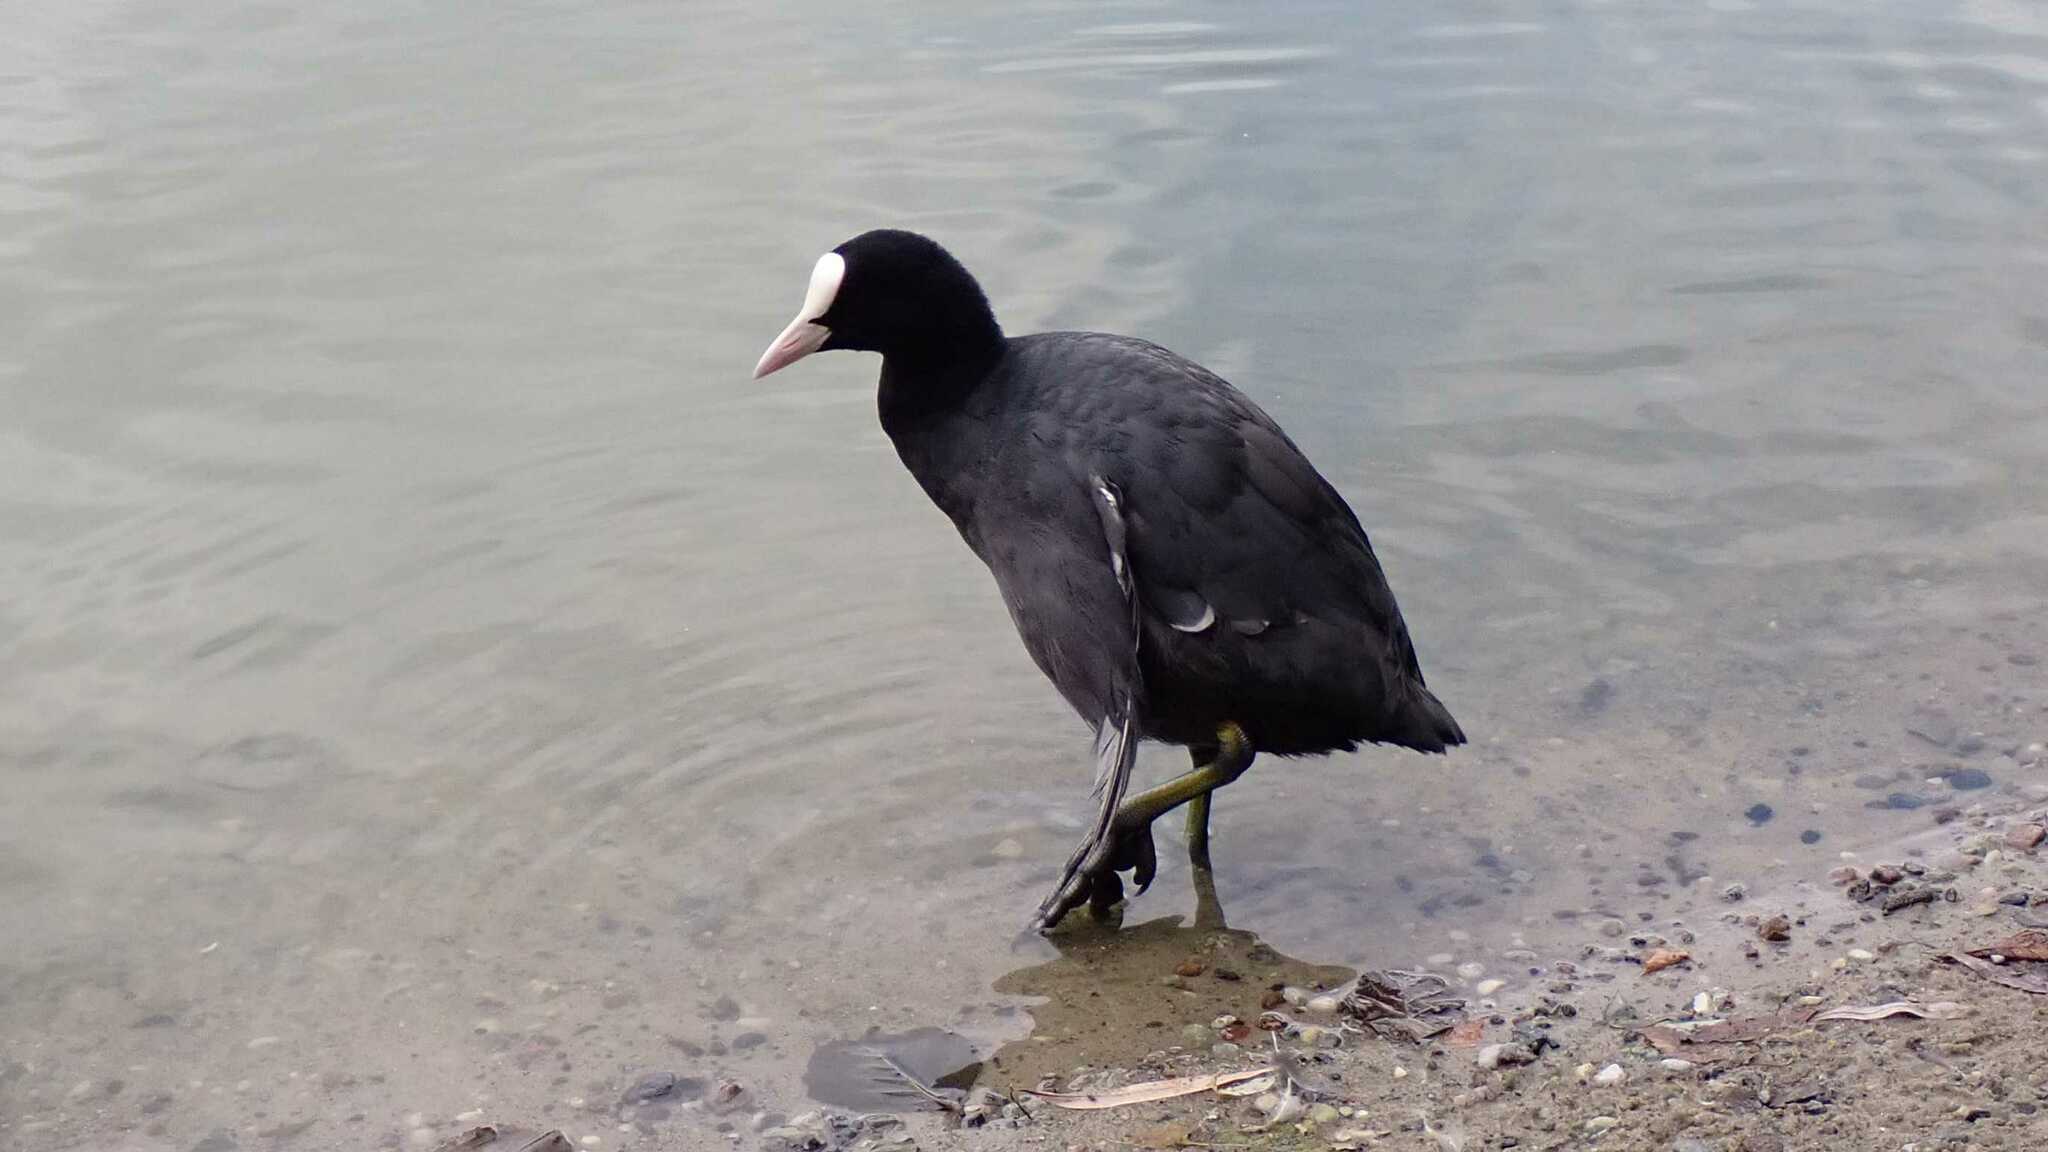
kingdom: Animalia
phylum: Chordata
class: Aves
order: Gruiformes
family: Rallidae
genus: Fulica
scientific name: Fulica atra
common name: Eurasian coot
